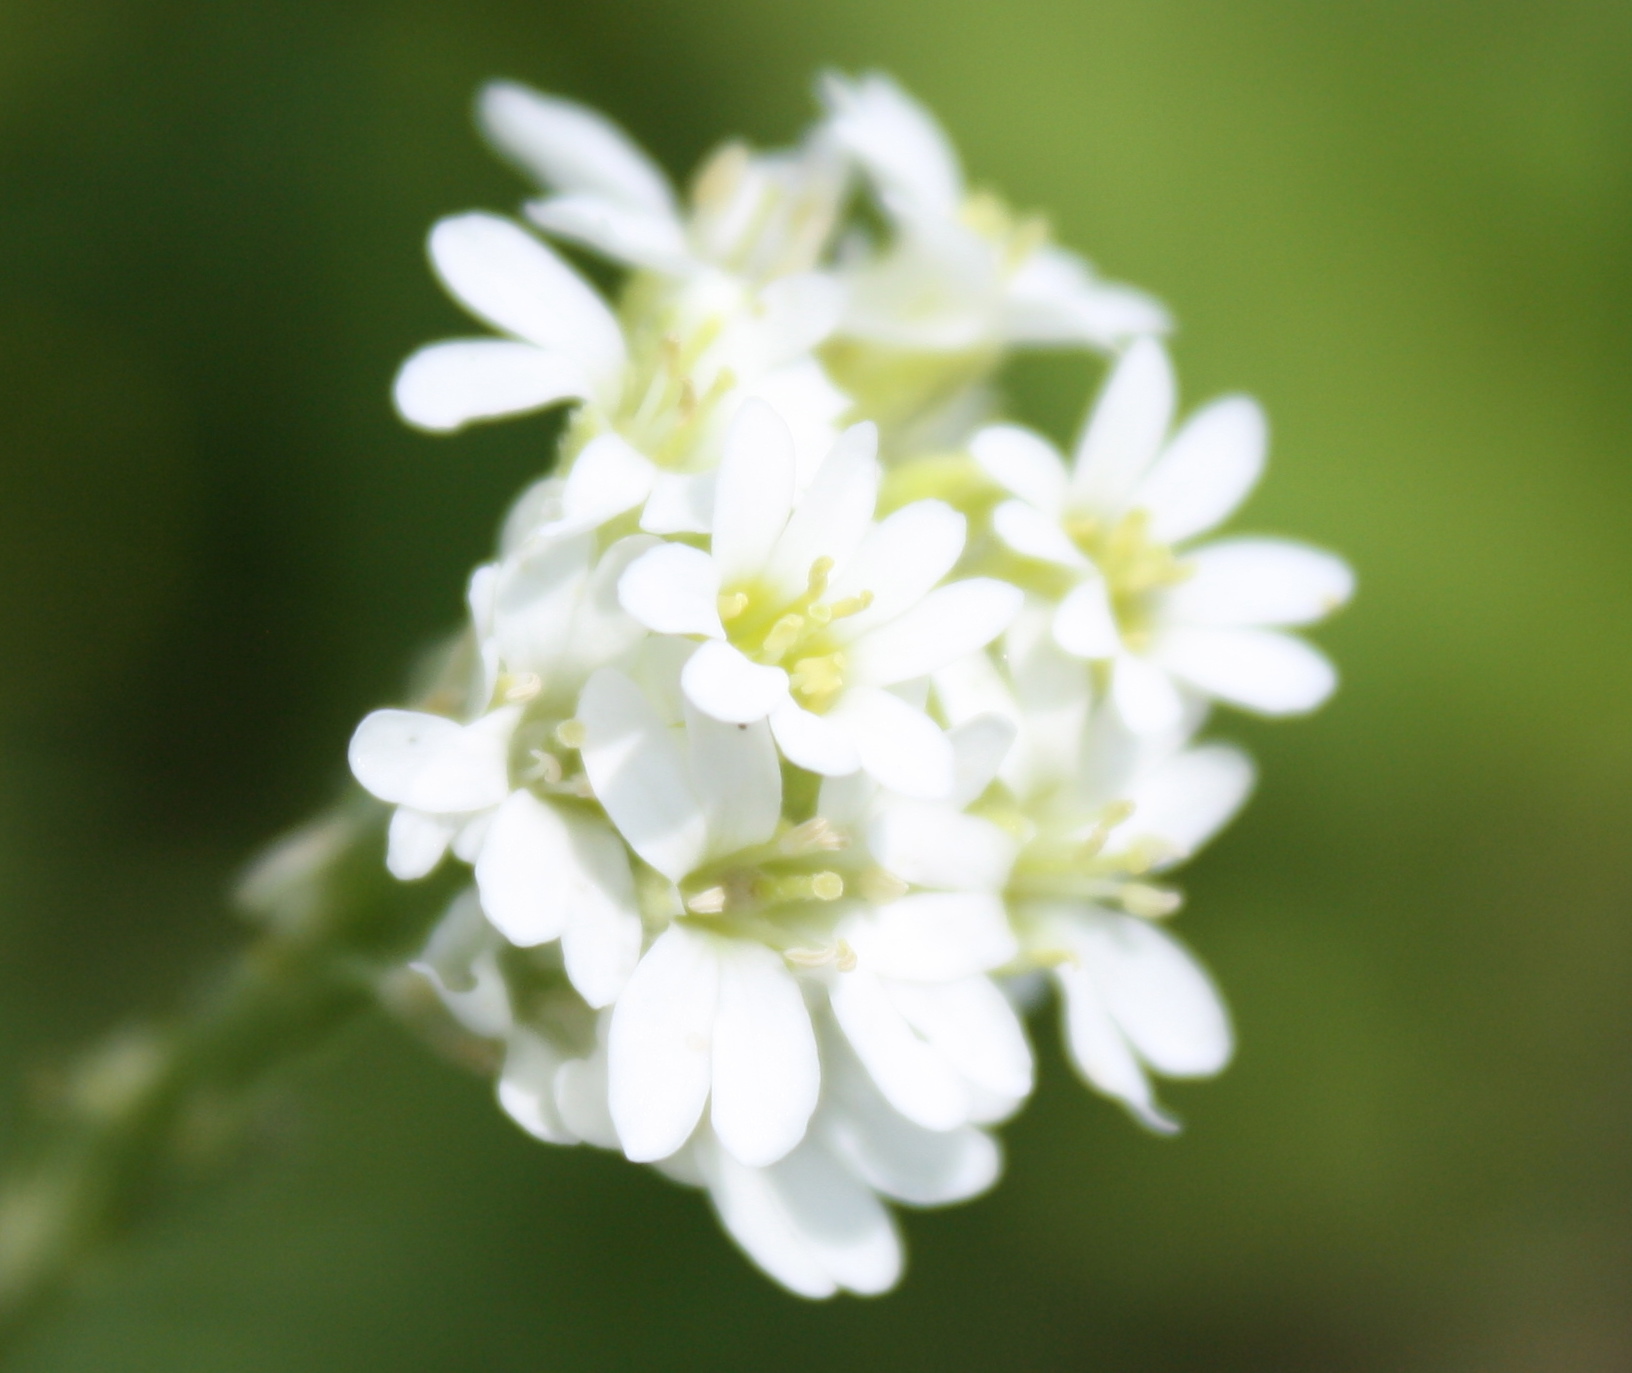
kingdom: Plantae
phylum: Tracheophyta
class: Magnoliopsida
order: Brassicales
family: Brassicaceae
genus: Berteroa
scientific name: Berteroa incana
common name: Hoary alison
